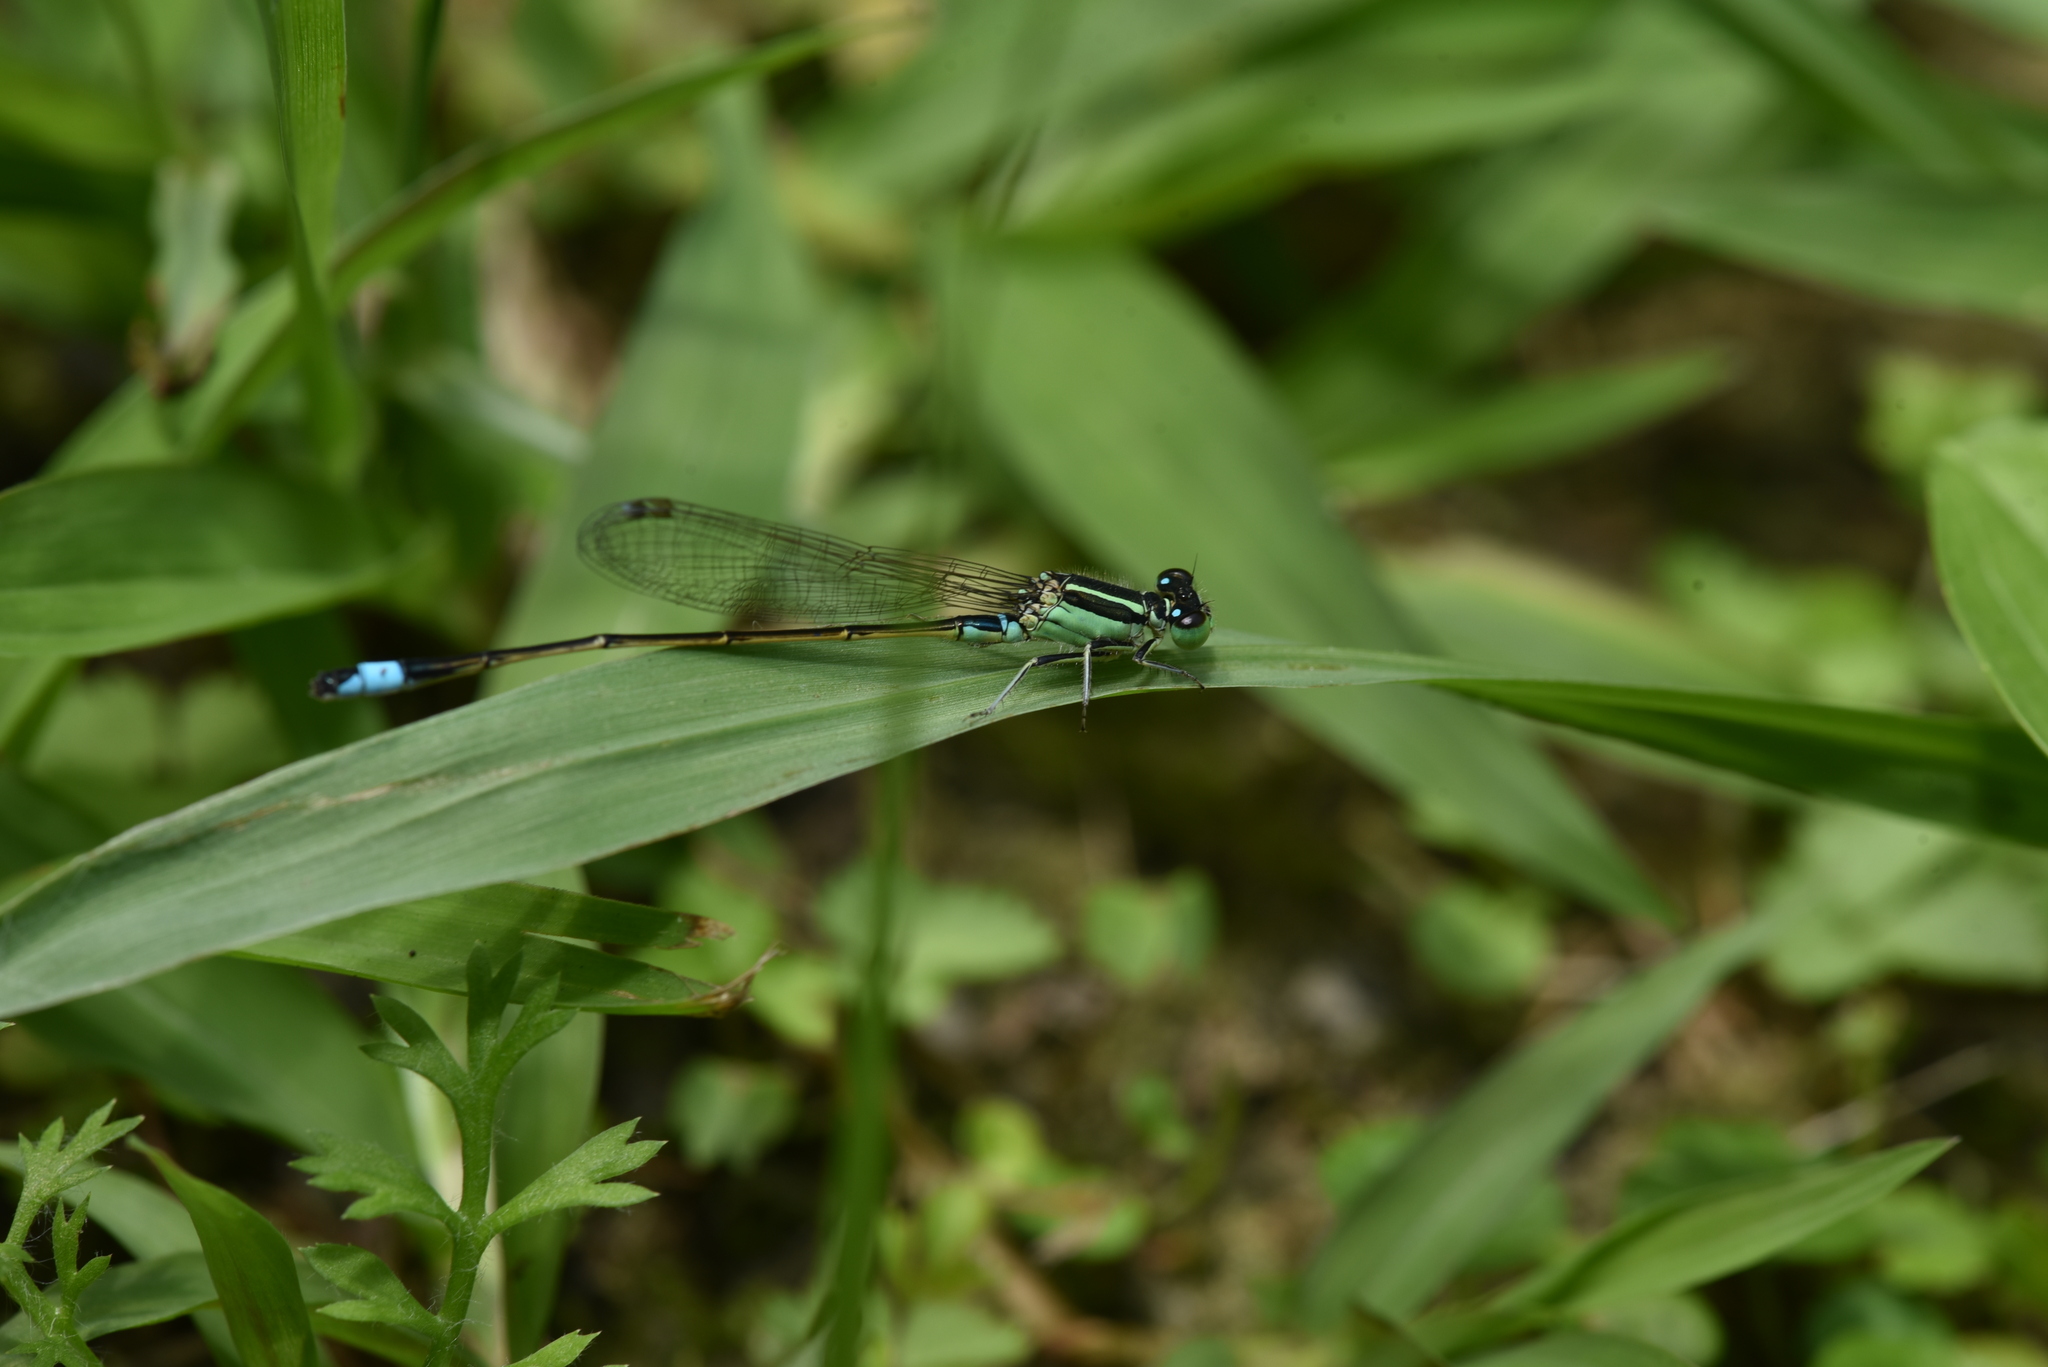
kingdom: Animalia
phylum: Arthropoda
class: Insecta
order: Odonata
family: Coenagrionidae
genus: Ischnura
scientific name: Ischnura senegalensis
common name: Tropical bluetail
